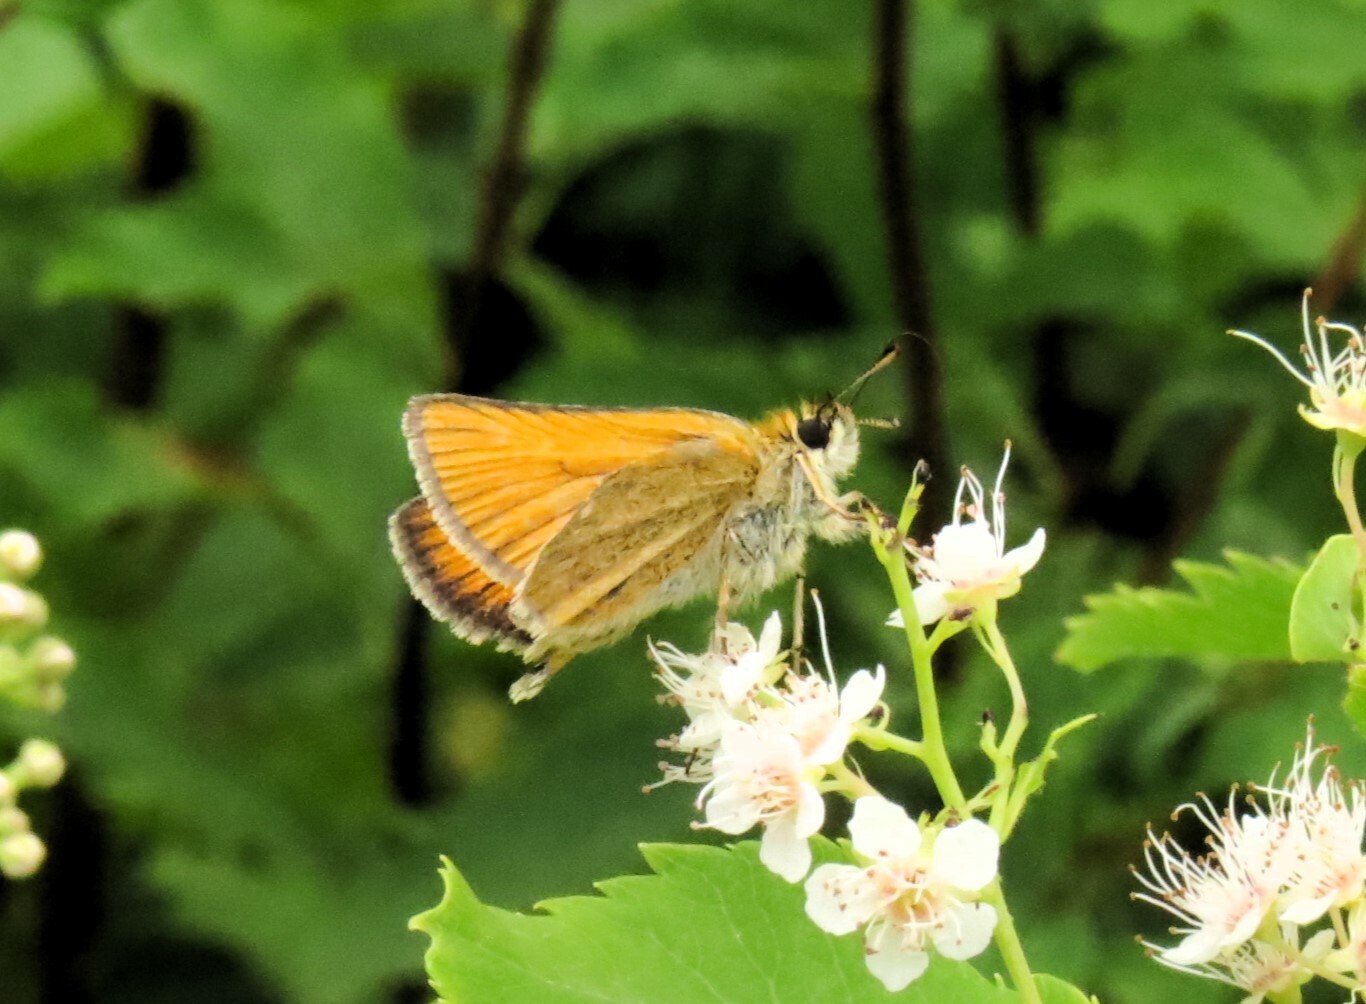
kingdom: Animalia
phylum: Arthropoda
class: Insecta
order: Lepidoptera
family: Hesperiidae
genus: Thymelicus
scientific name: Thymelicus lineola
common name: Essex skipper
